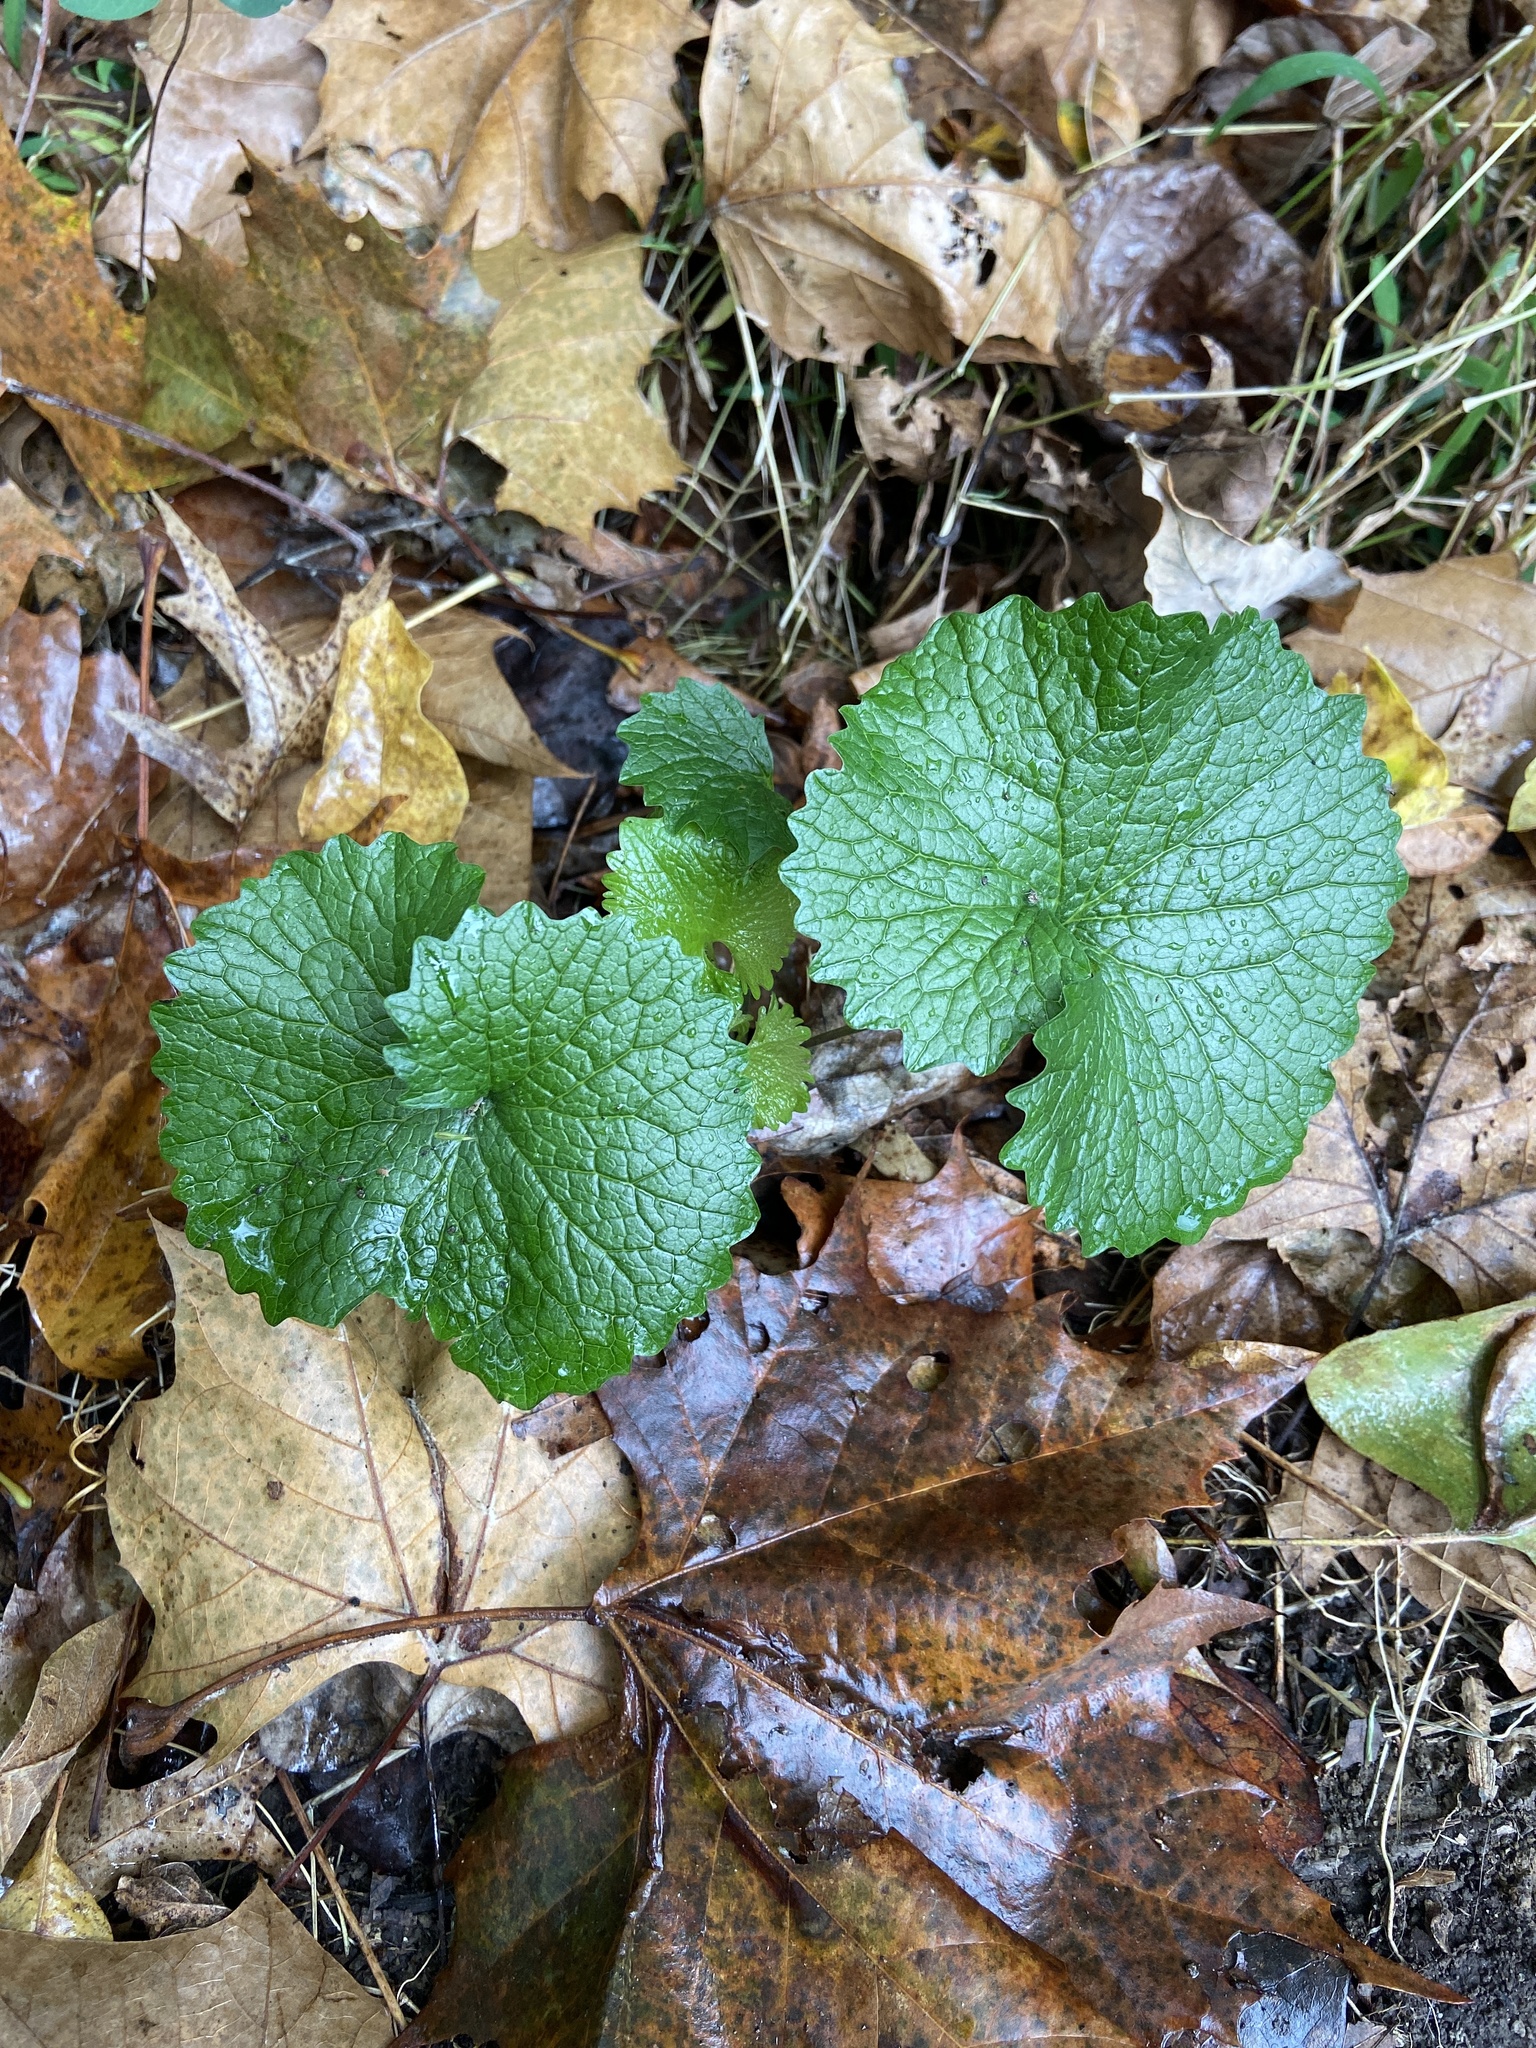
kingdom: Plantae
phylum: Tracheophyta
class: Magnoliopsida
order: Brassicales
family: Brassicaceae
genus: Alliaria
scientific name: Alliaria petiolata
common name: Garlic mustard
